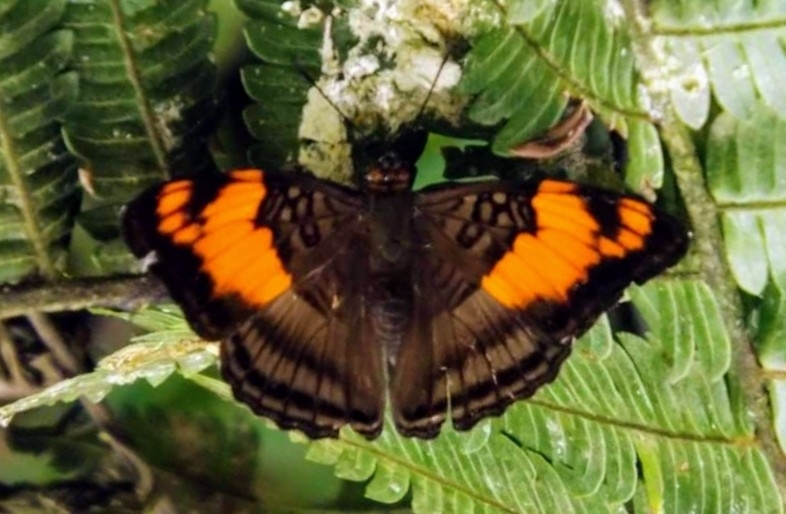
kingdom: Animalia
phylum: Arthropoda
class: Insecta
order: Lepidoptera
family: Nymphalidae
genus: Limenitis
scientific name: Limenitis mesentina
